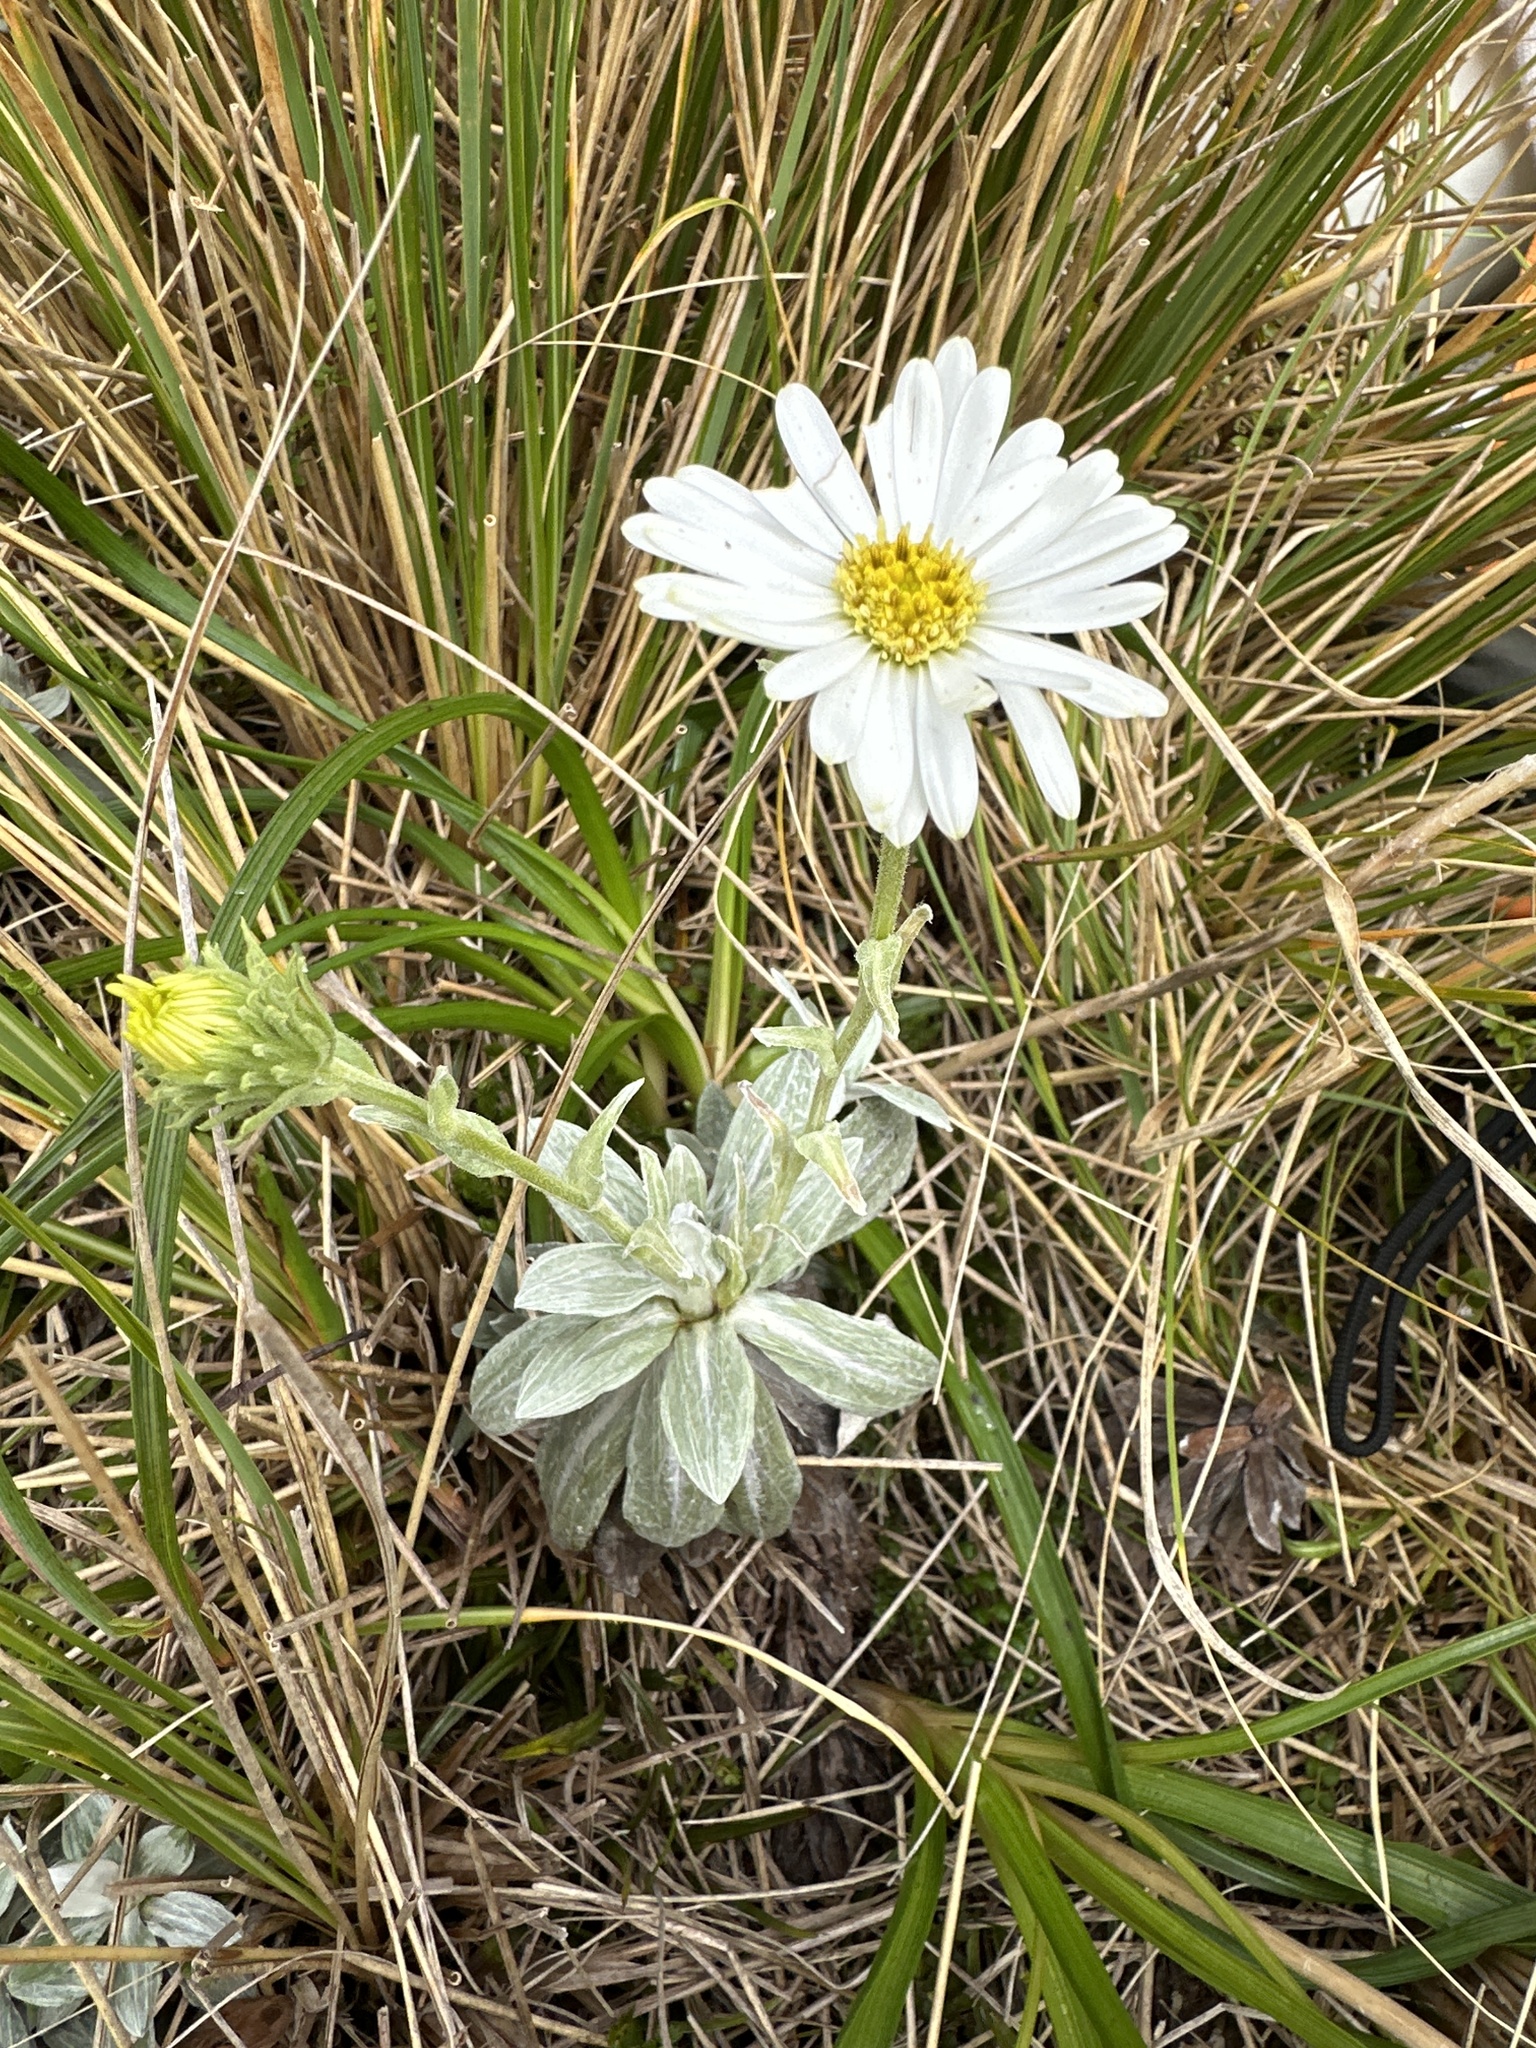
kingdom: Plantae
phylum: Tracheophyta
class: Magnoliopsida
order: Asterales
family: Asteraceae
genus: Celmisia
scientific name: Celmisia incana
